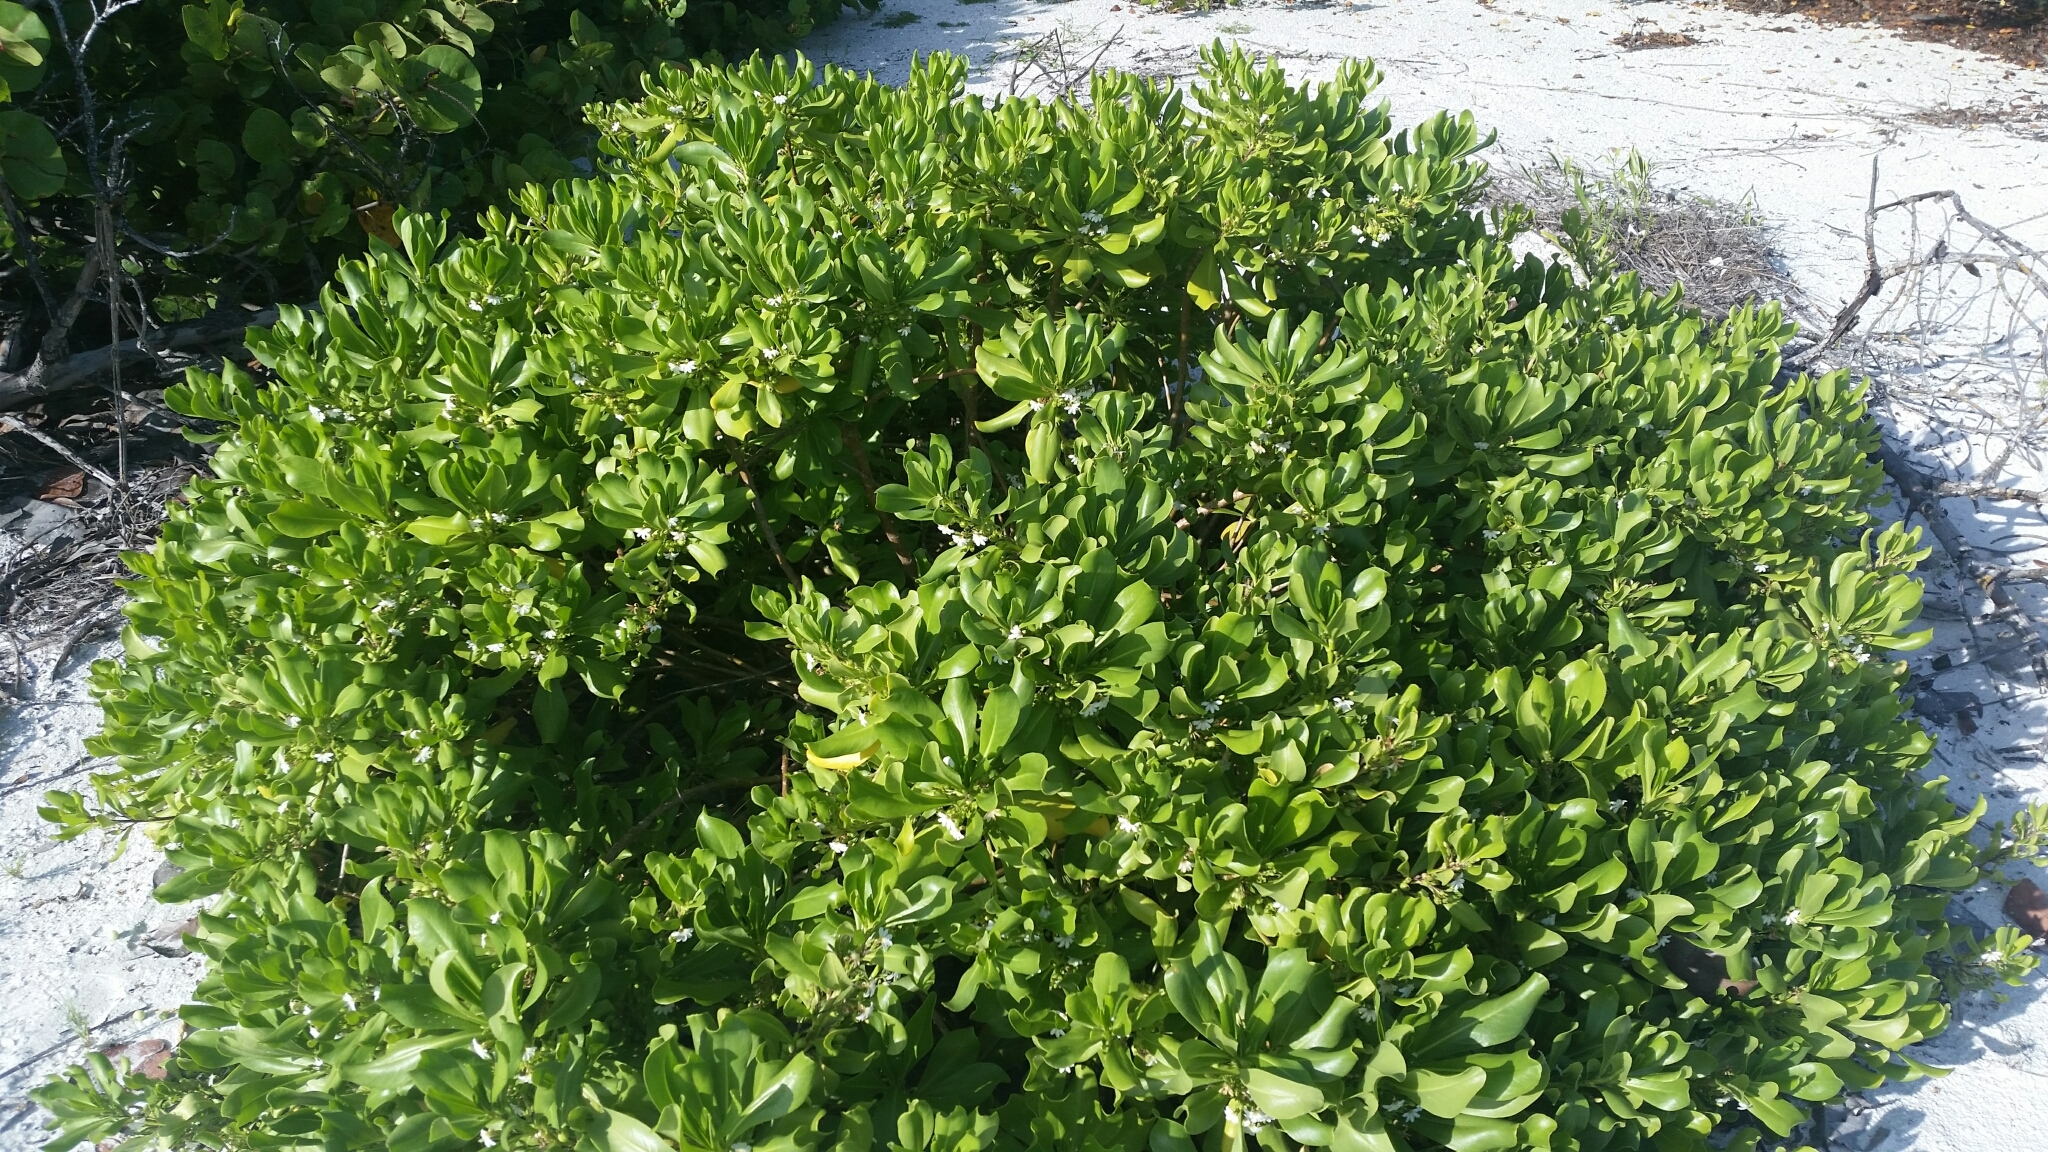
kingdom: Plantae
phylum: Tracheophyta
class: Magnoliopsida
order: Asterales
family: Goodeniaceae
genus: Scaevola
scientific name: Scaevola taccada
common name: Sea lettucetree
